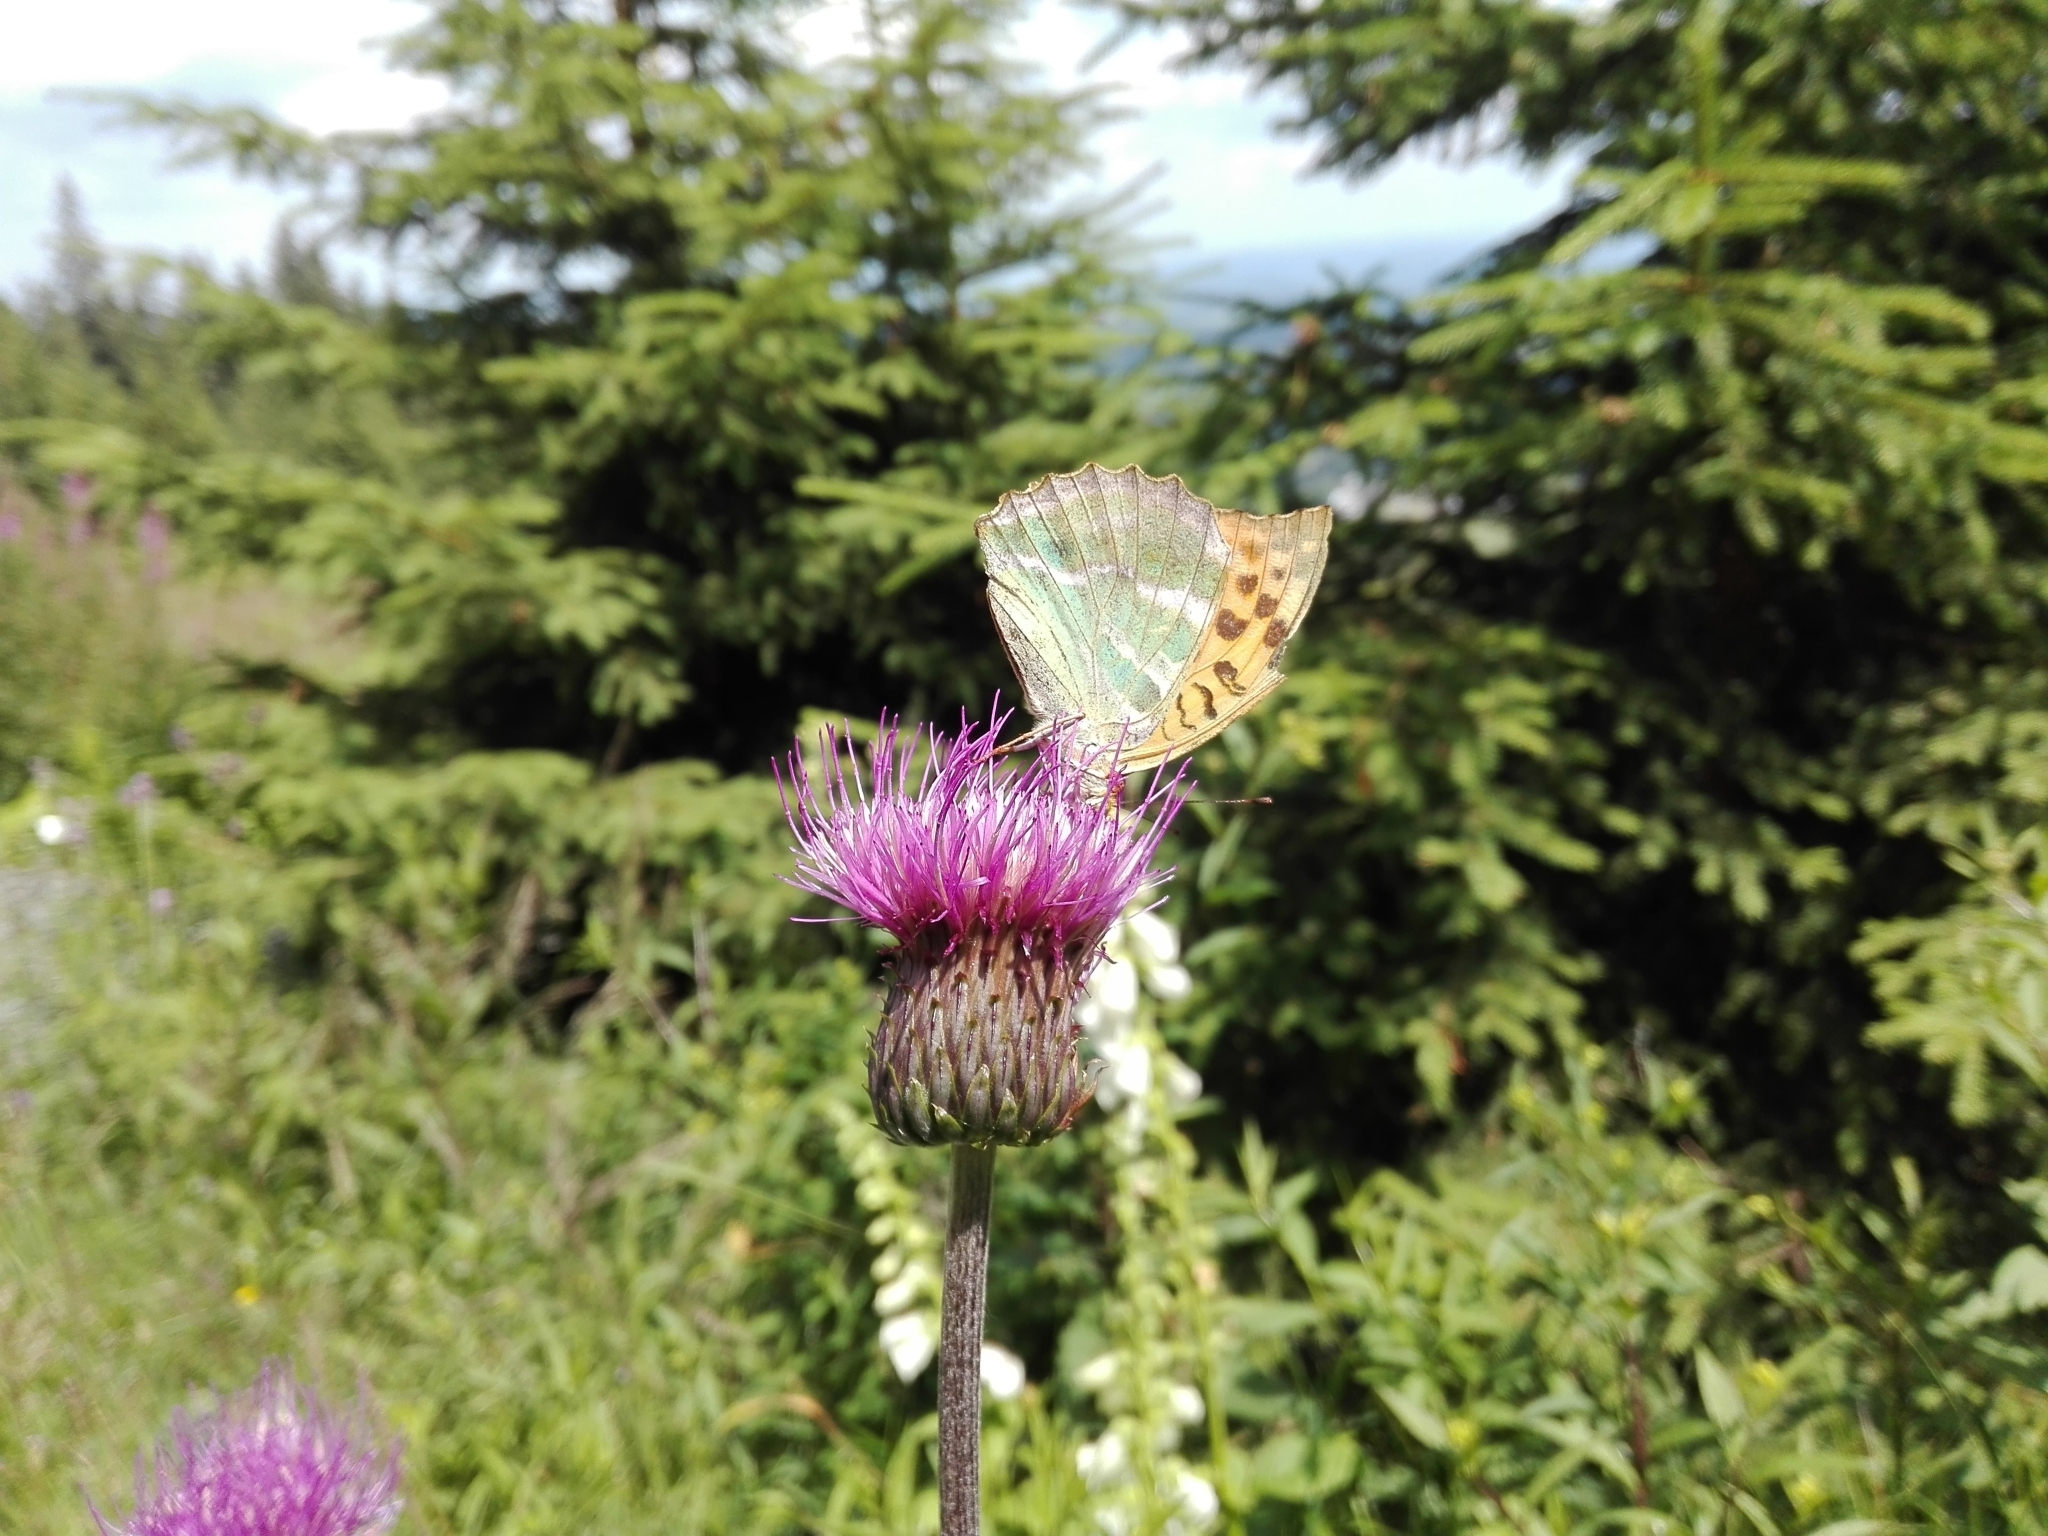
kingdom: Animalia
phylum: Arthropoda
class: Insecta
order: Lepidoptera
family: Nymphalidae
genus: Argynnis
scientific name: Argynnis paphia
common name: Silver-washed fritillary
